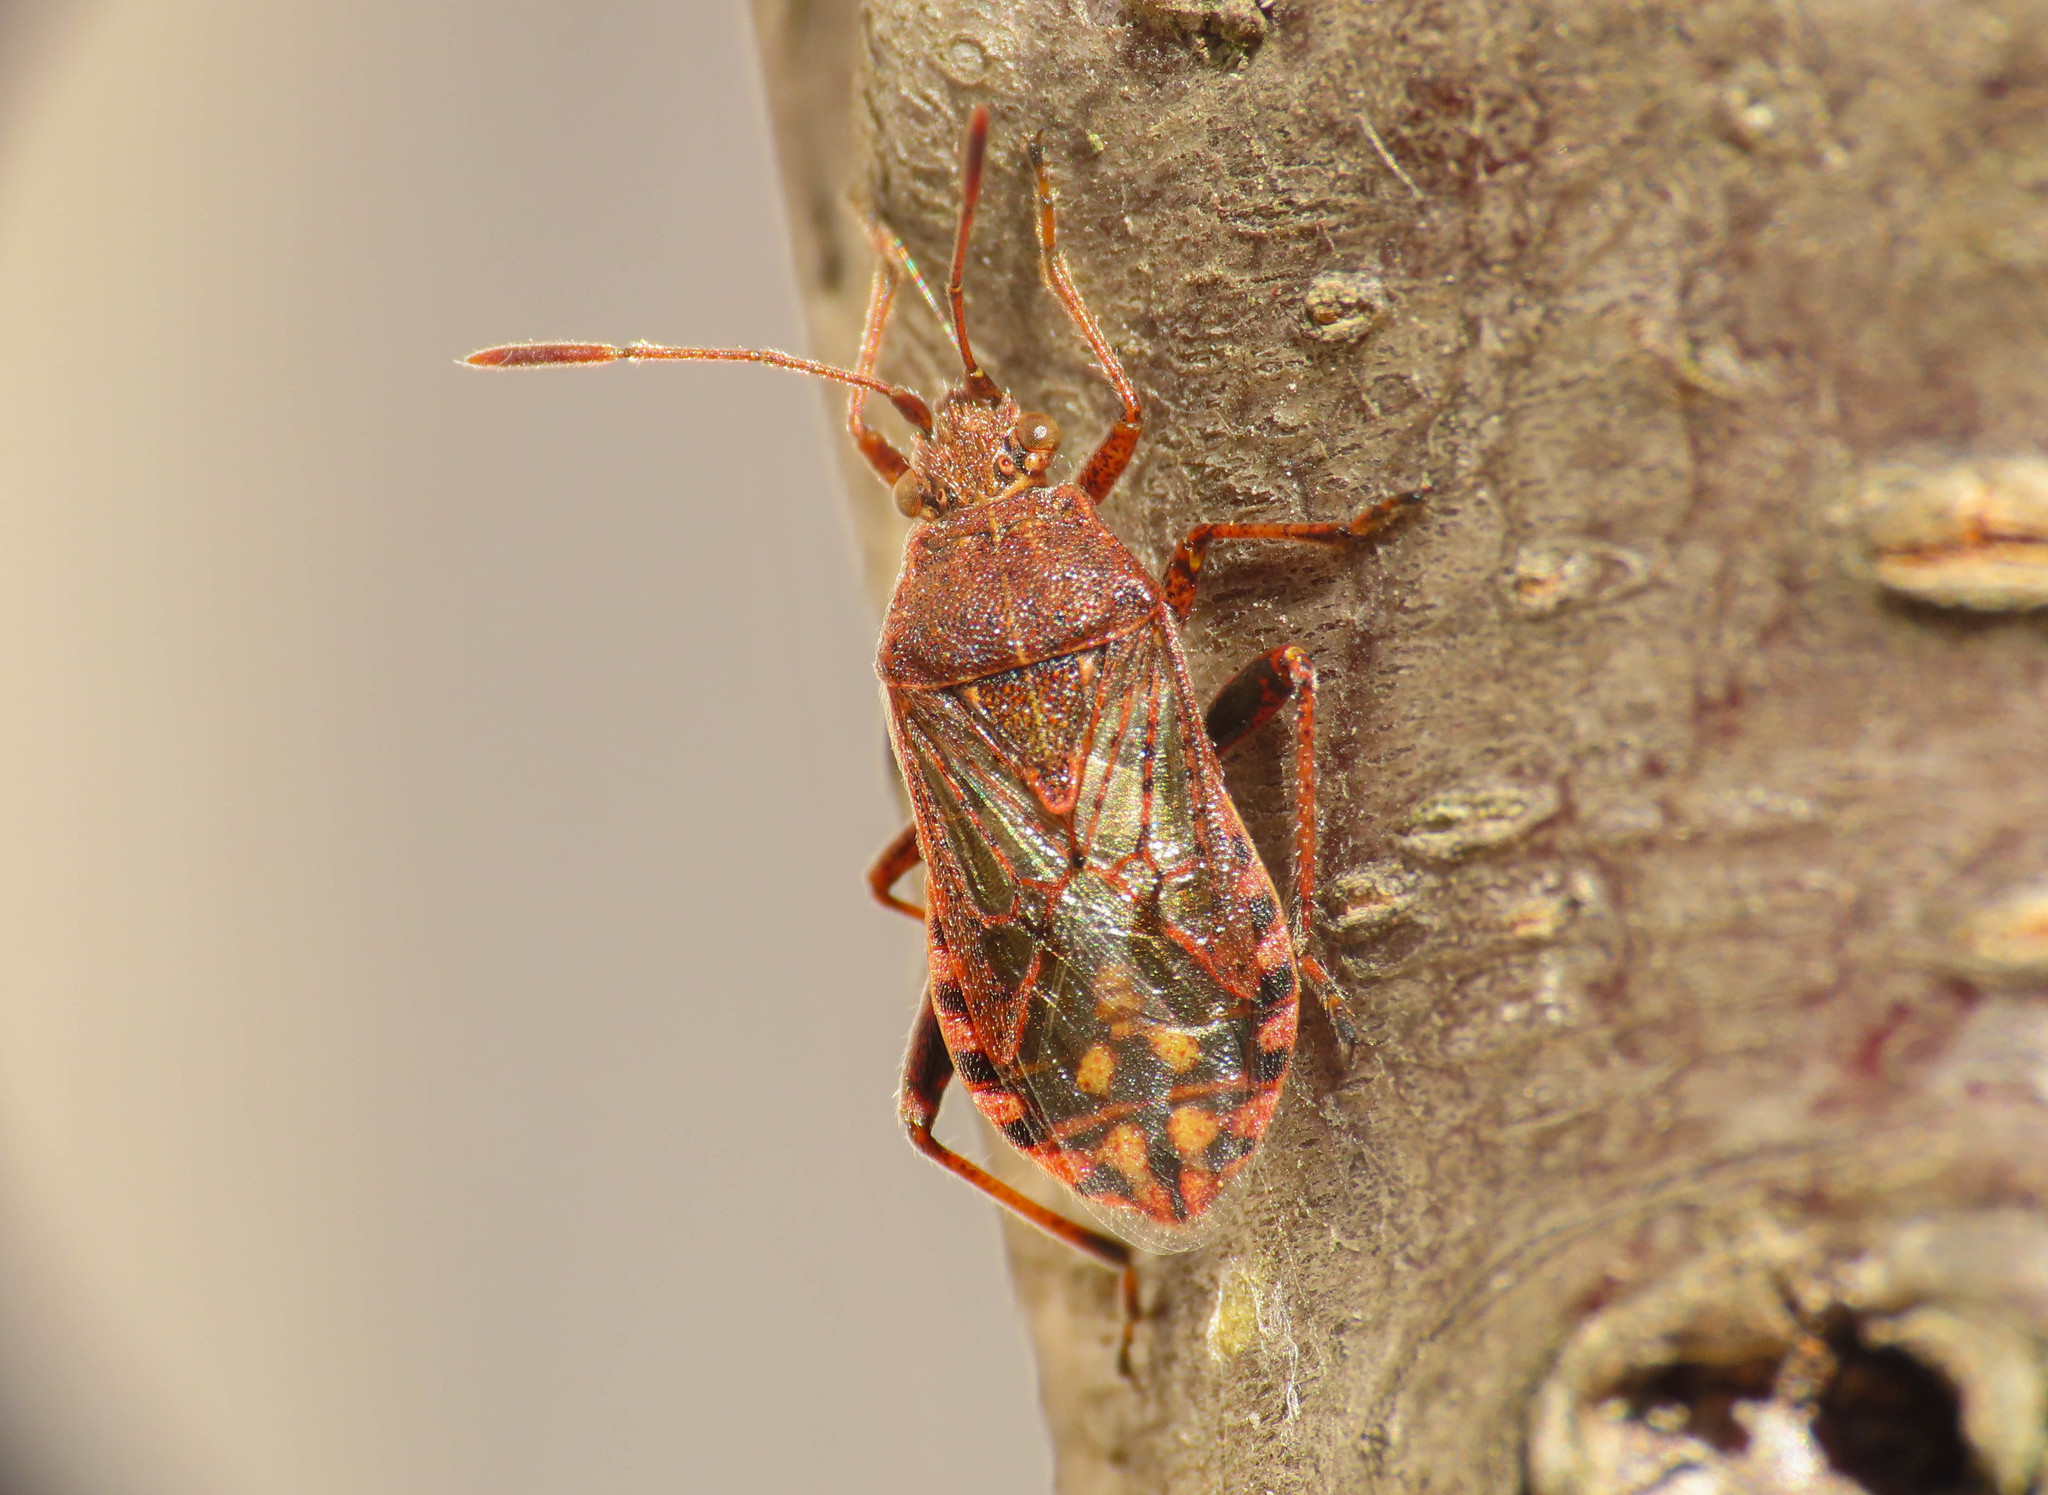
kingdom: Animalia
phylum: Arthropoda
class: Insecta
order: Hemiptera
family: Rhopalidae
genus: Stictopleurus
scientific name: Stictopleurus punctatonervosus
